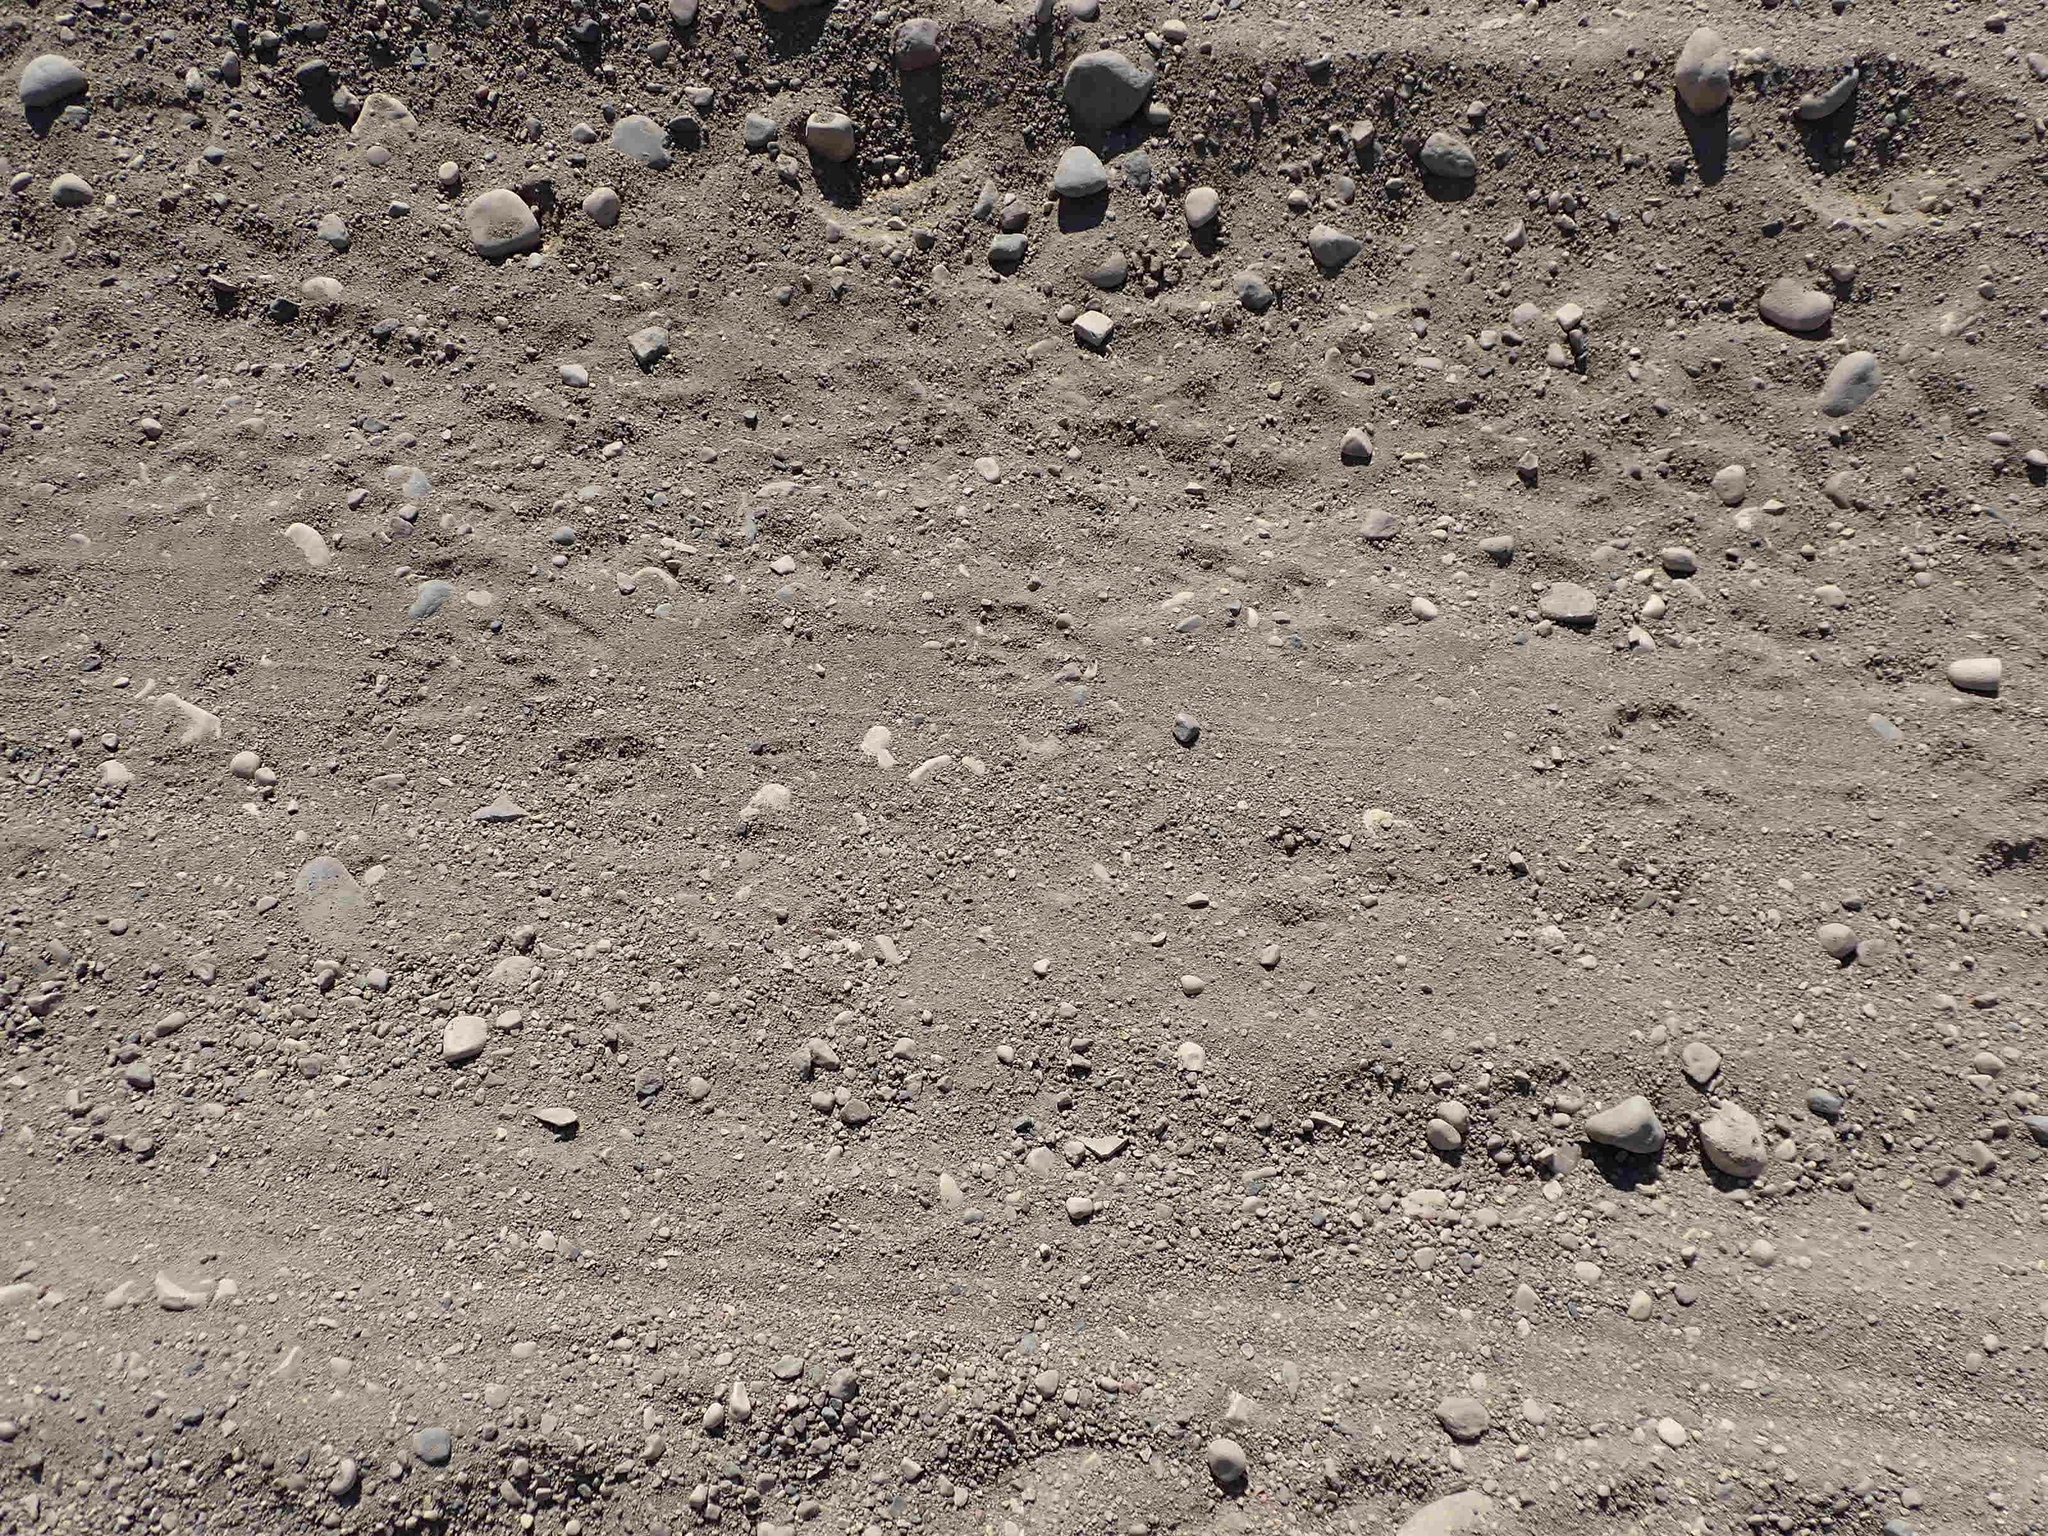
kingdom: Animalia
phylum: Chordata
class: Mammalia
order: Carnivora
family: Procyonidae
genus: Procyon
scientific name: Procyon lotor
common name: Raccoon
